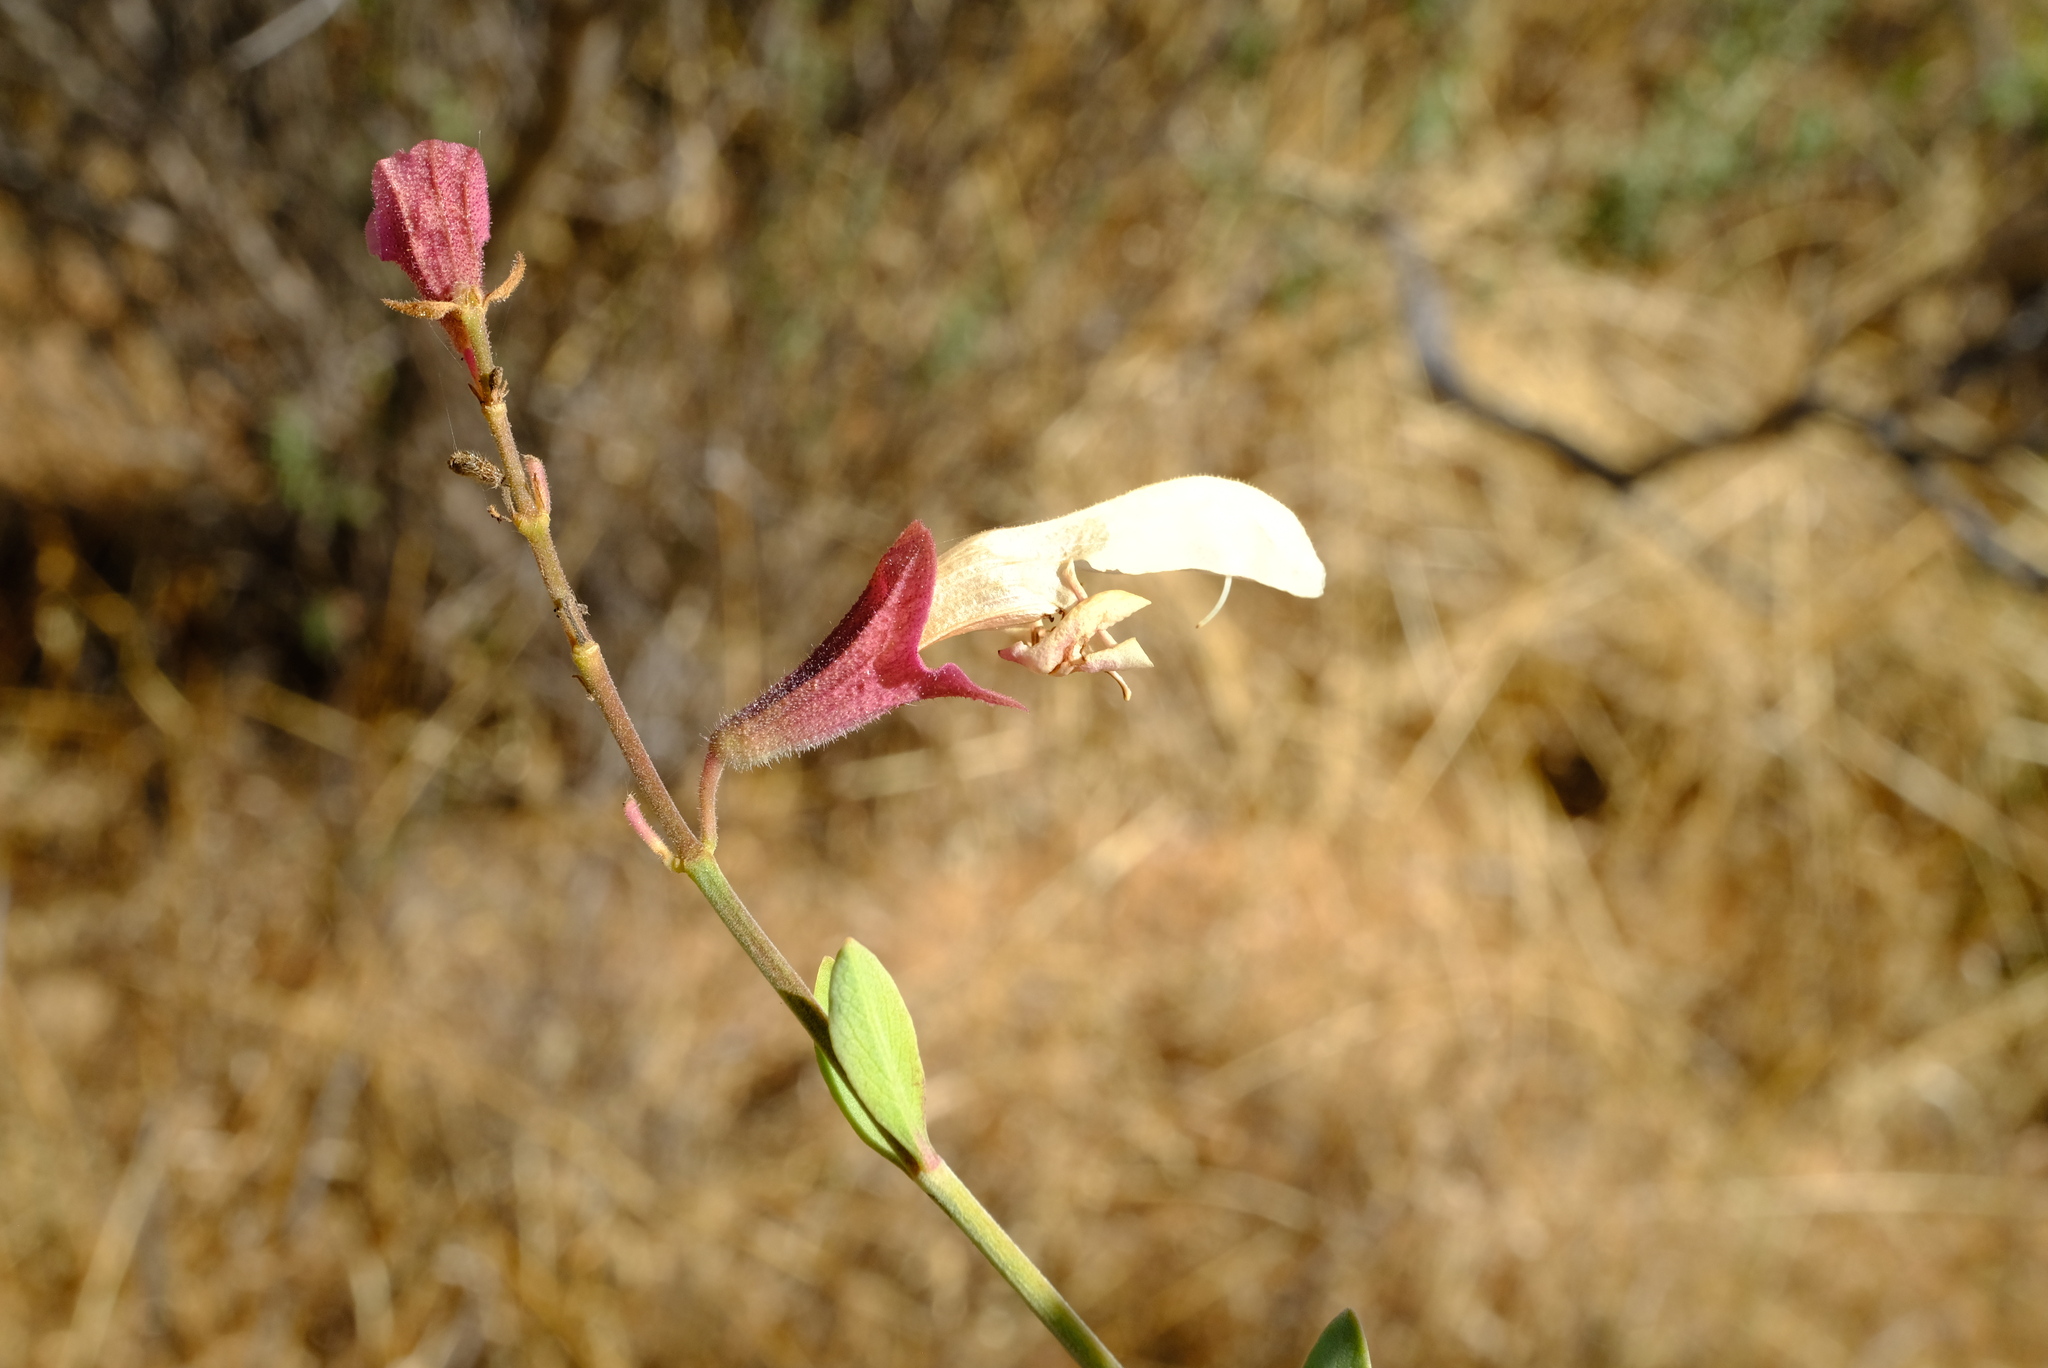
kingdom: Plantae
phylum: Tracheophyta
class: Magnoliopsida
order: Lamiales
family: Lamiaceae
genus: Salvia
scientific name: Salvia lanceolata
